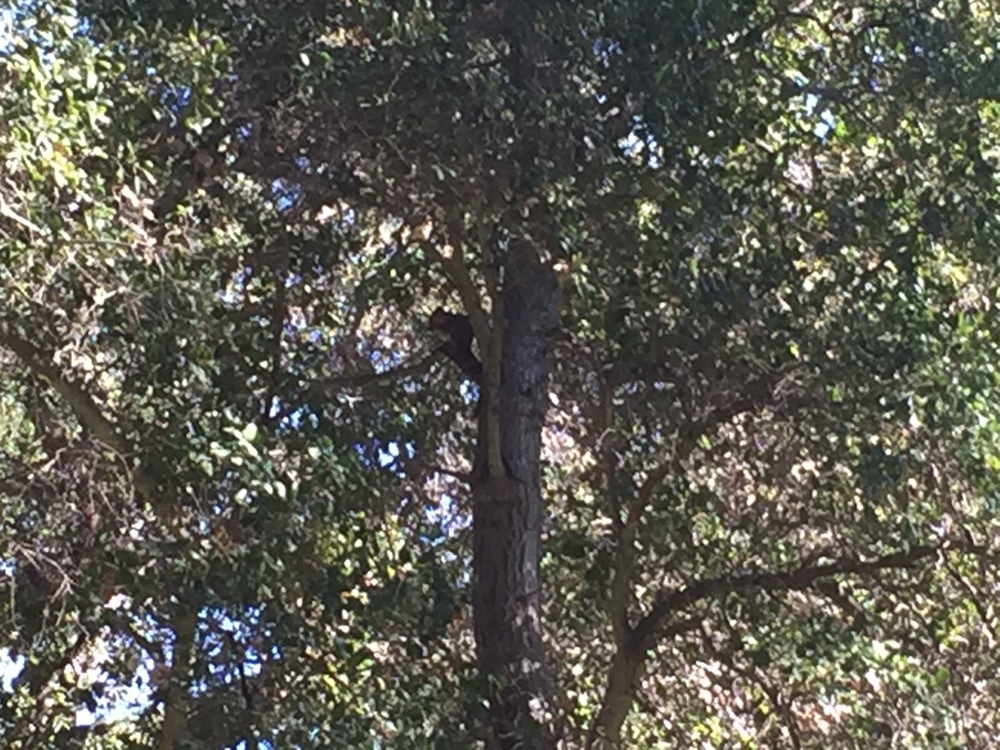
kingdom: Animalia
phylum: Chordata
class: Mammalia
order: Rodentia
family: Sciuridae
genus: Sciurus
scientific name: Sciurus niger
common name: Fox squirrel
